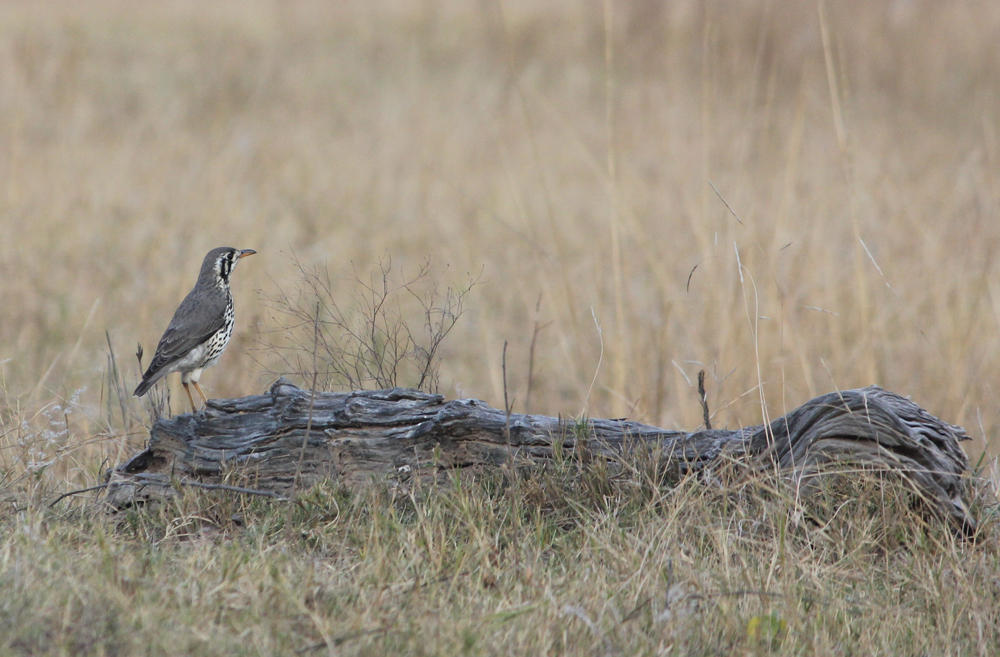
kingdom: Animalia
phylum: Chordata
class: Aves
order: Passeriformes
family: Turdidae
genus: Psophocichla
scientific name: Psophocichla litsitsirupa
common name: Groundscraper thrush
